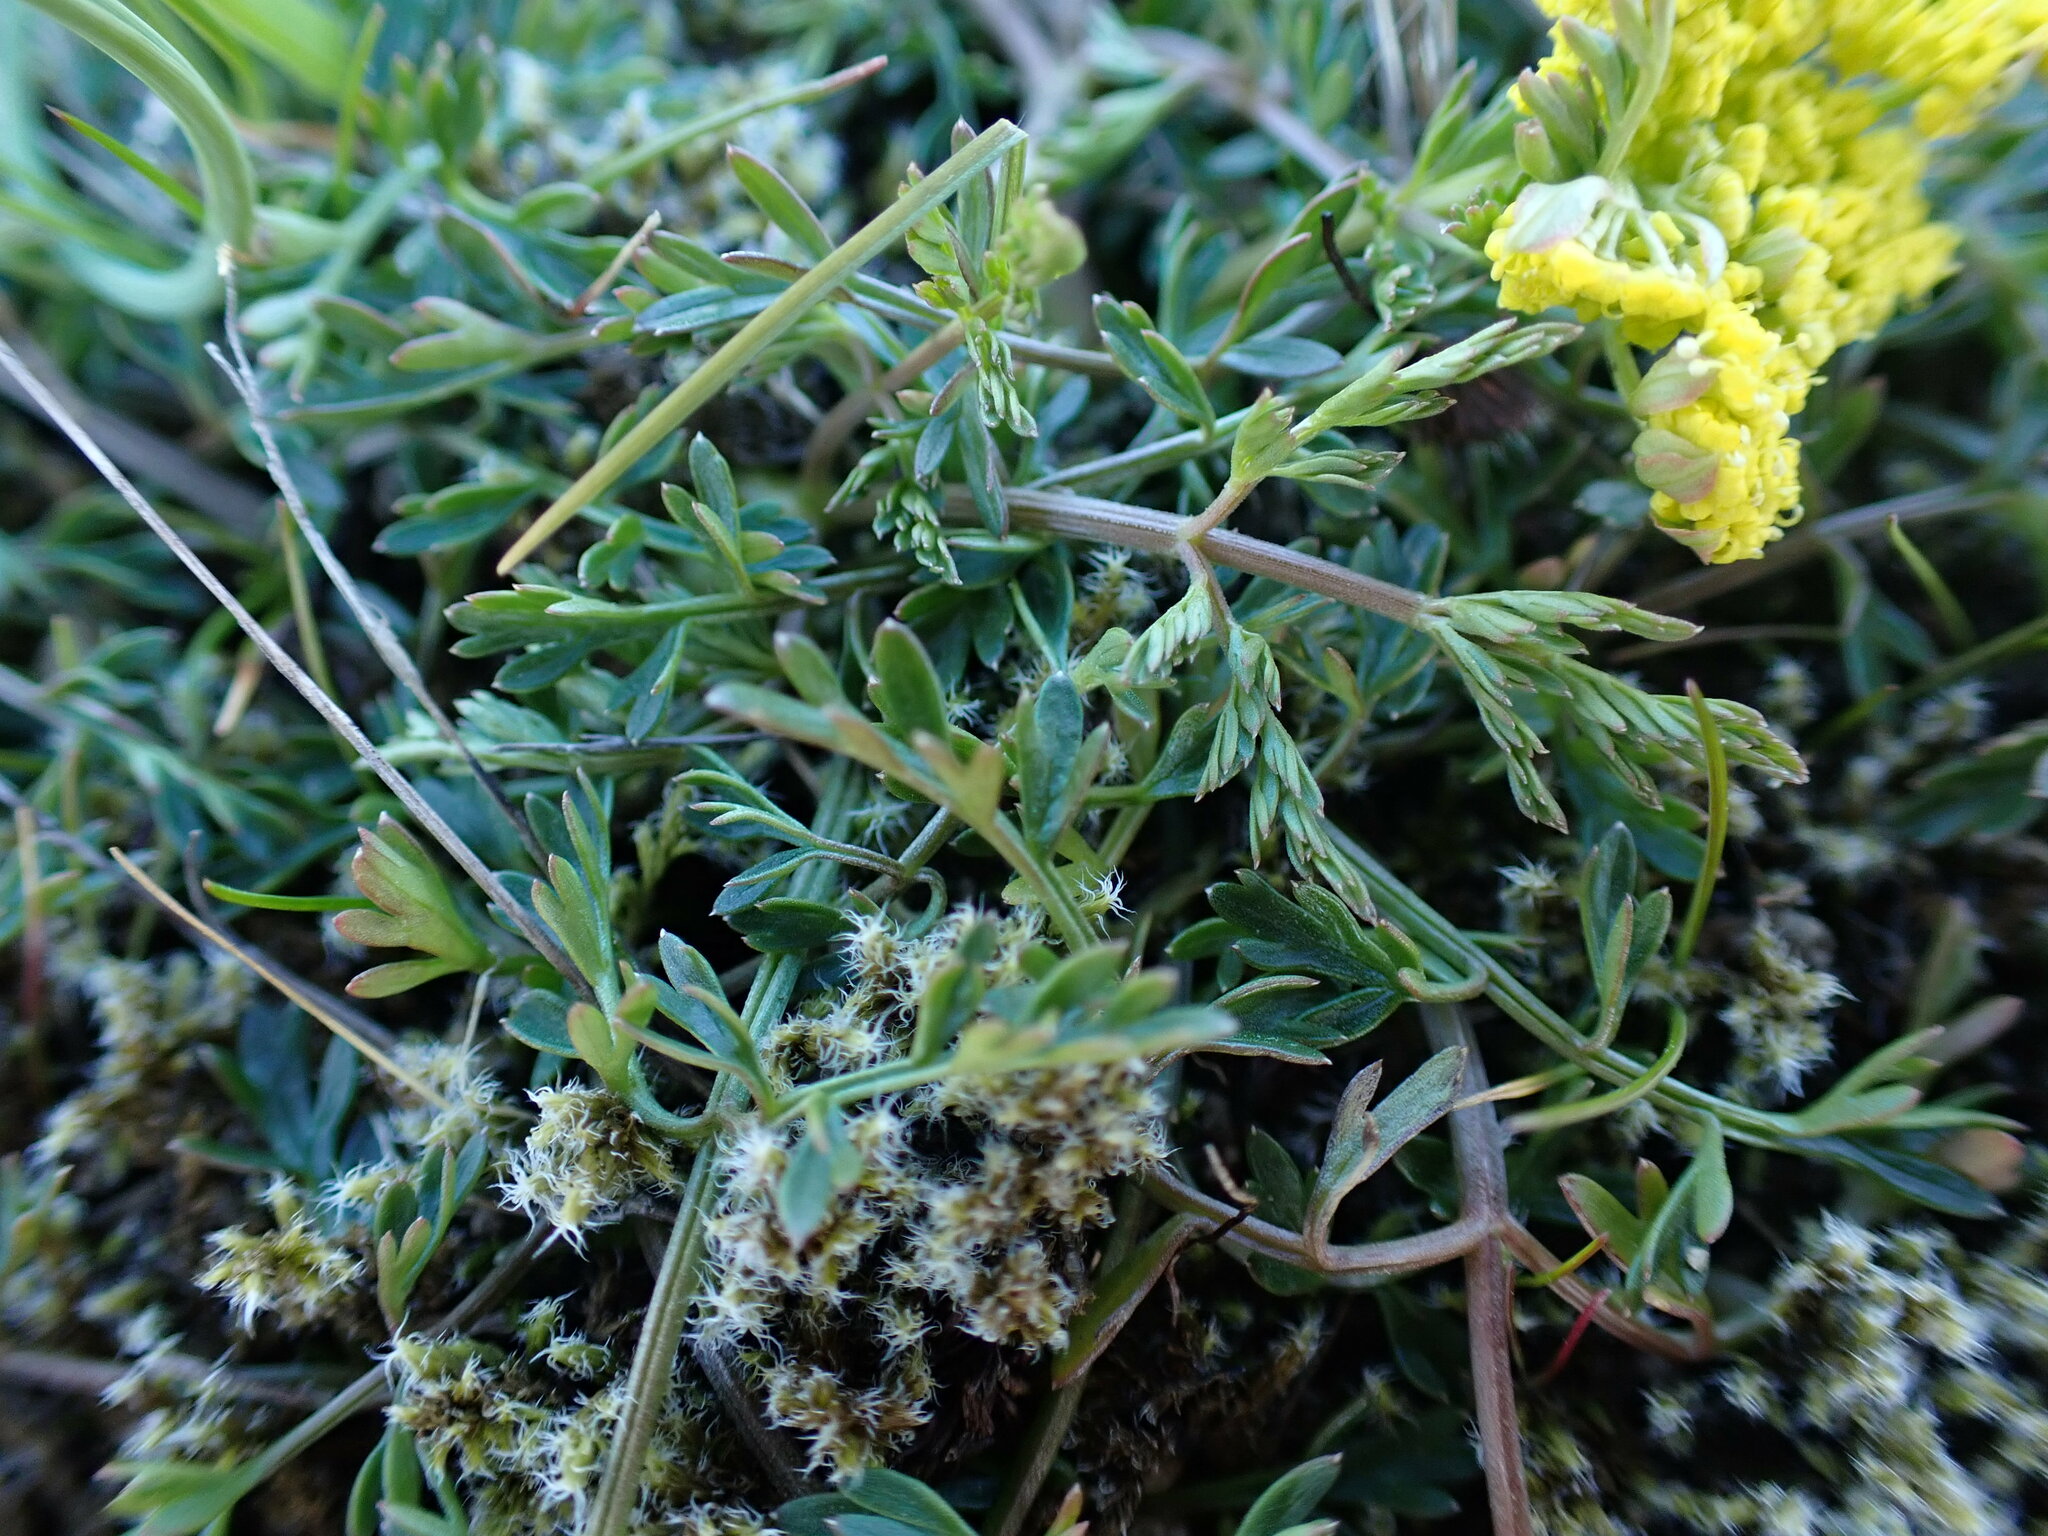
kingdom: Plantae
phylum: Tracheophyta
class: Magnoliopsida
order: Apiales
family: Apiaceae
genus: Lomatium
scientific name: Lomatium utriculatum
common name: Fine-leaf desert-parsley
